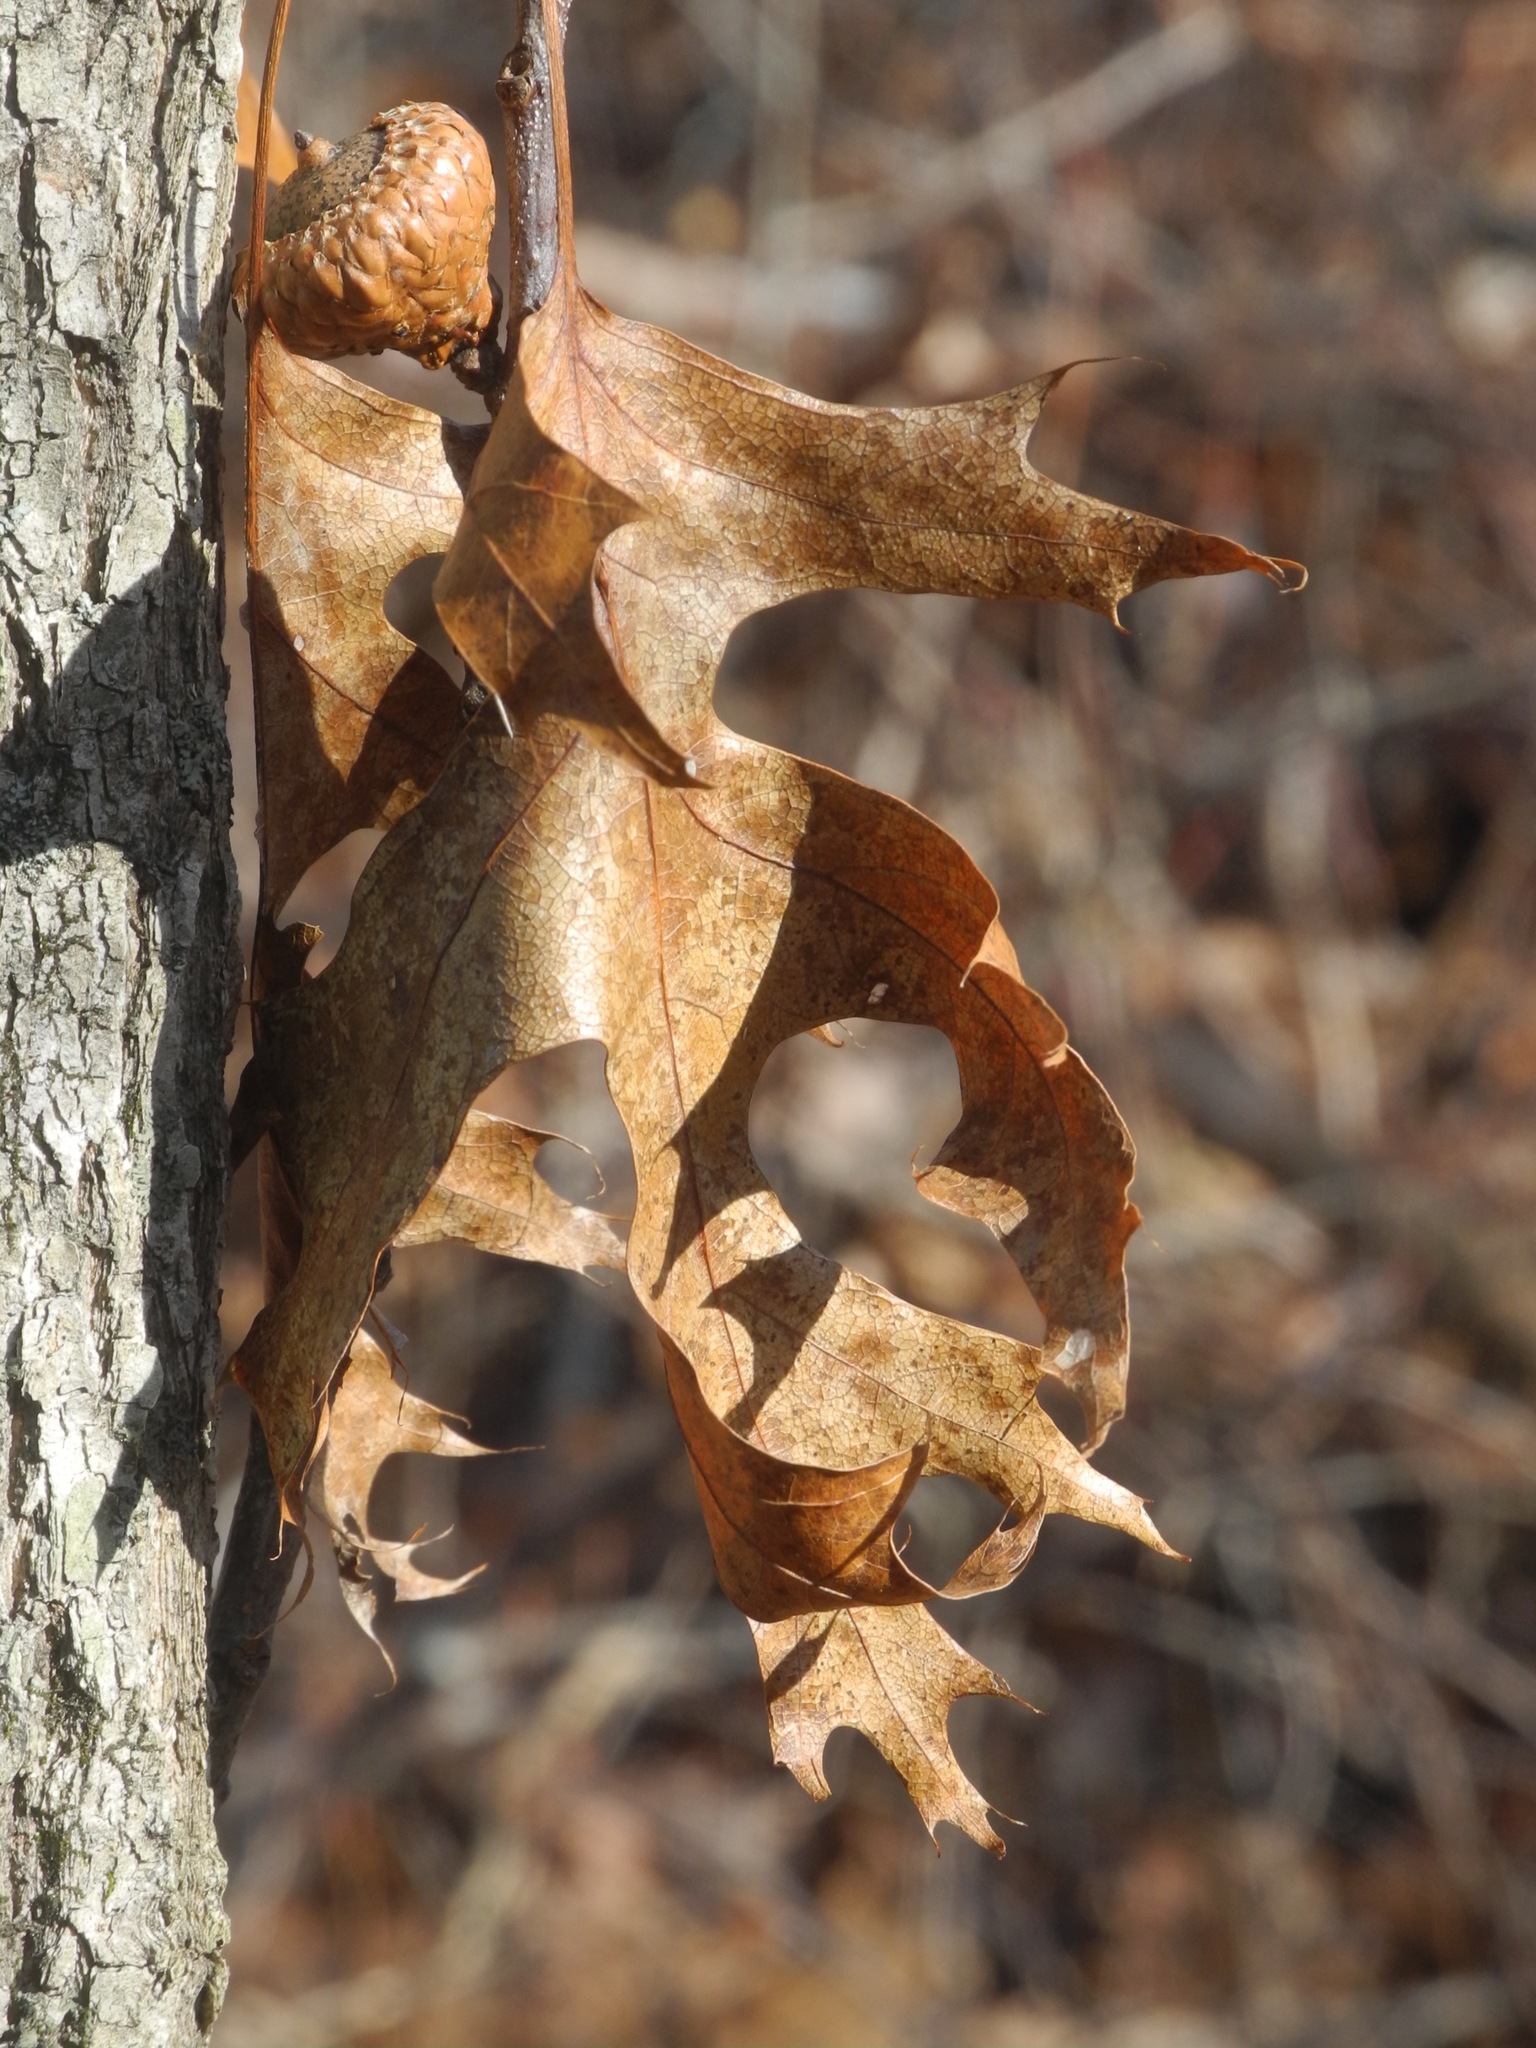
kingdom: Plantae
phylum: Tracheophyta
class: Magnoliopsida
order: Fagales
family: Fagaceae
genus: Quercus
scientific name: Quercus coccinea
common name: Scarlet oak
